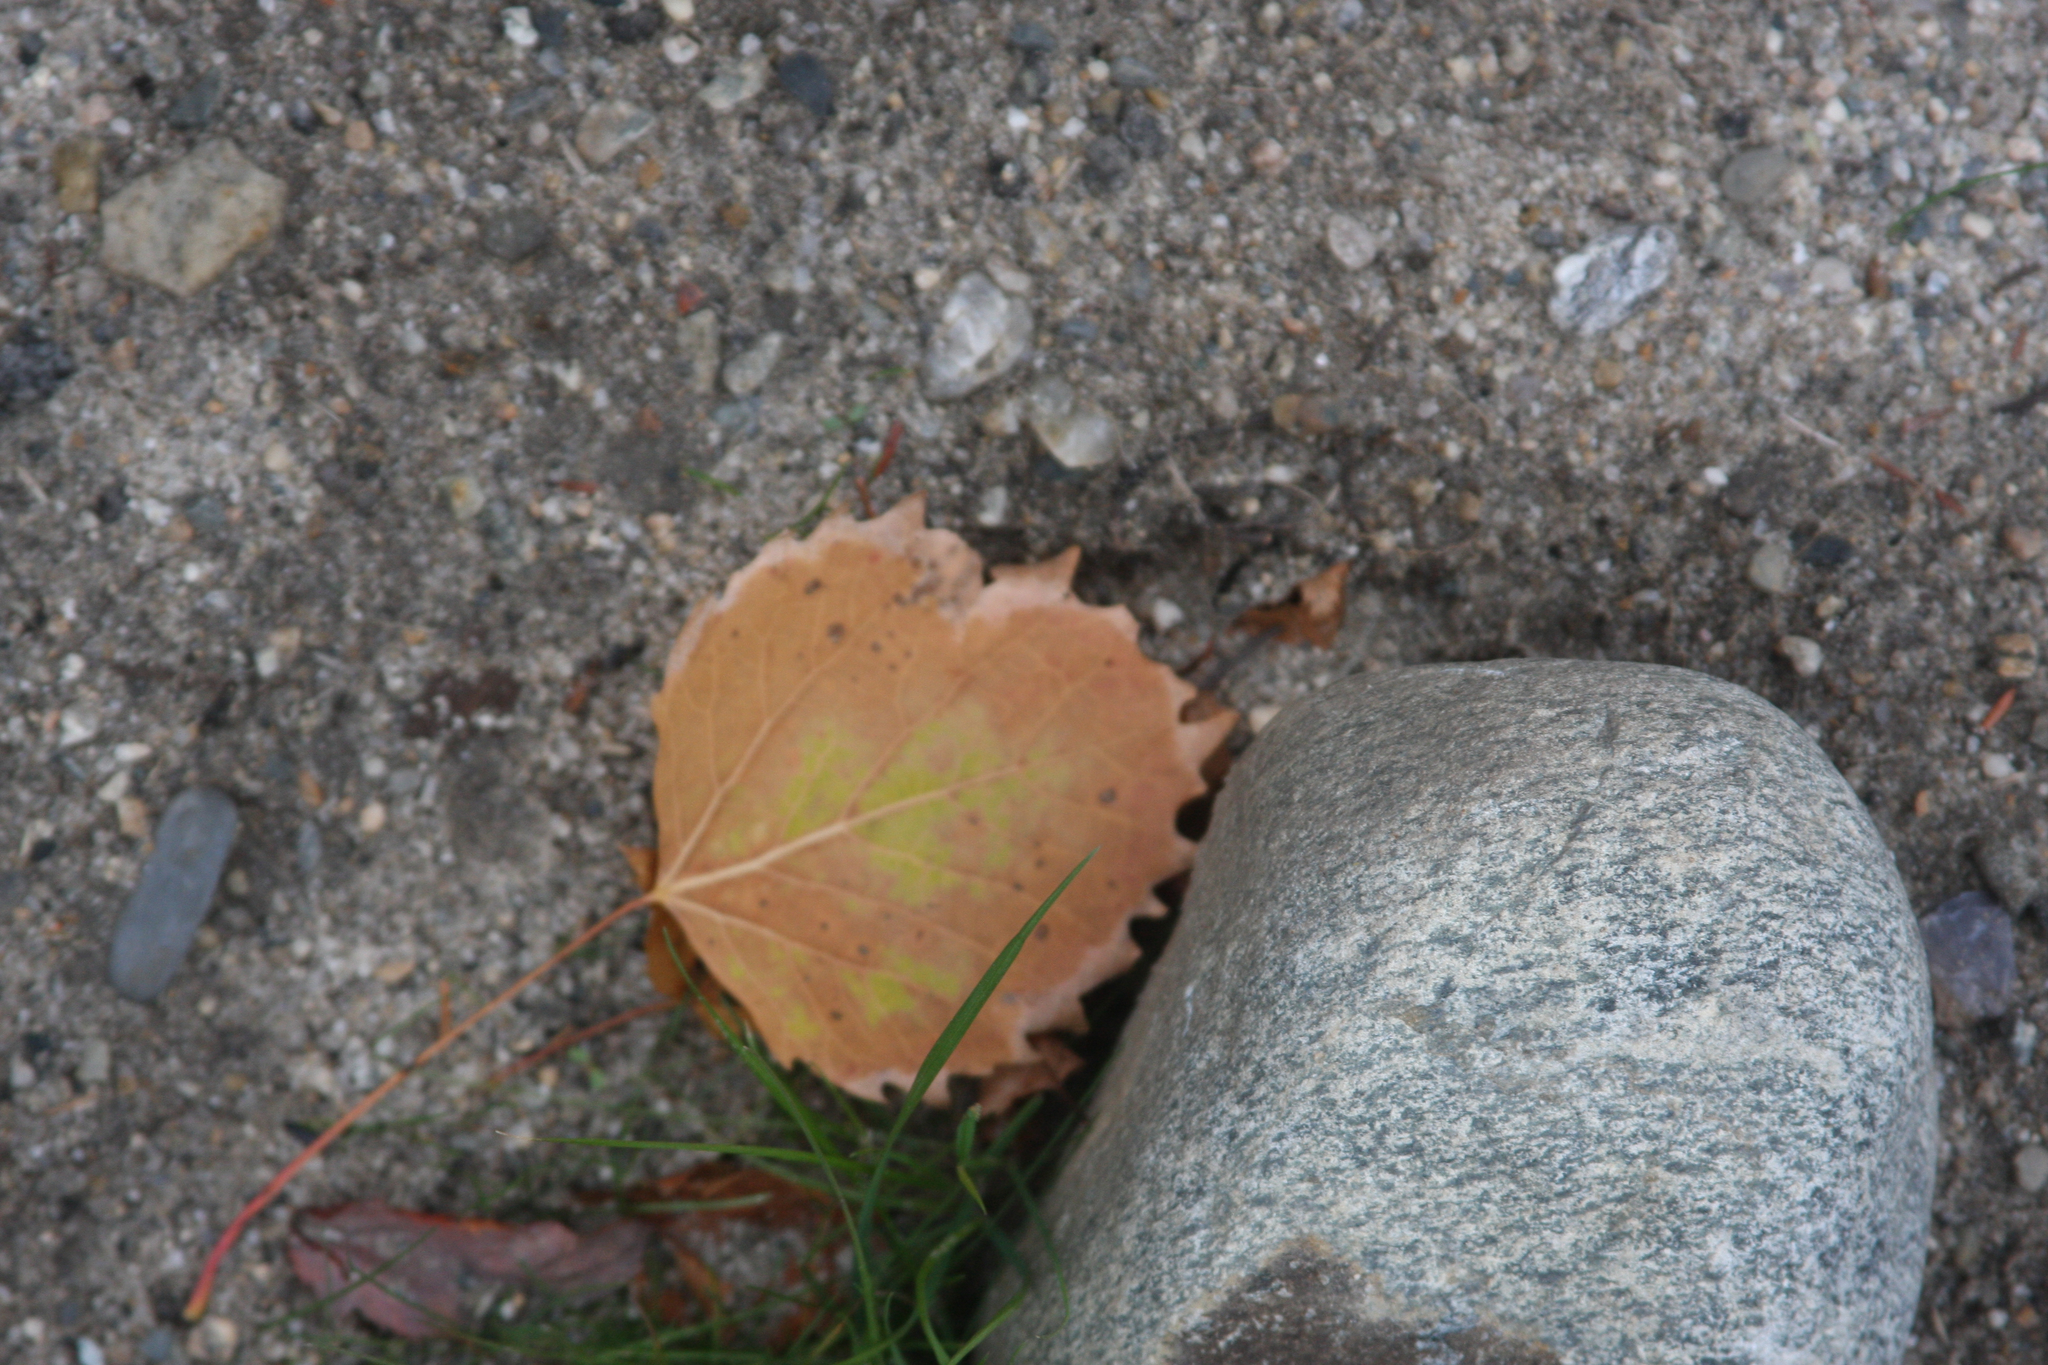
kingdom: Plantae
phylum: Tracheophyta
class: Magnoliopsida
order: Malpighiales
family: Salicaceae
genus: Populus
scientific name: Populus grandidentata
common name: Bigtooth aspen
